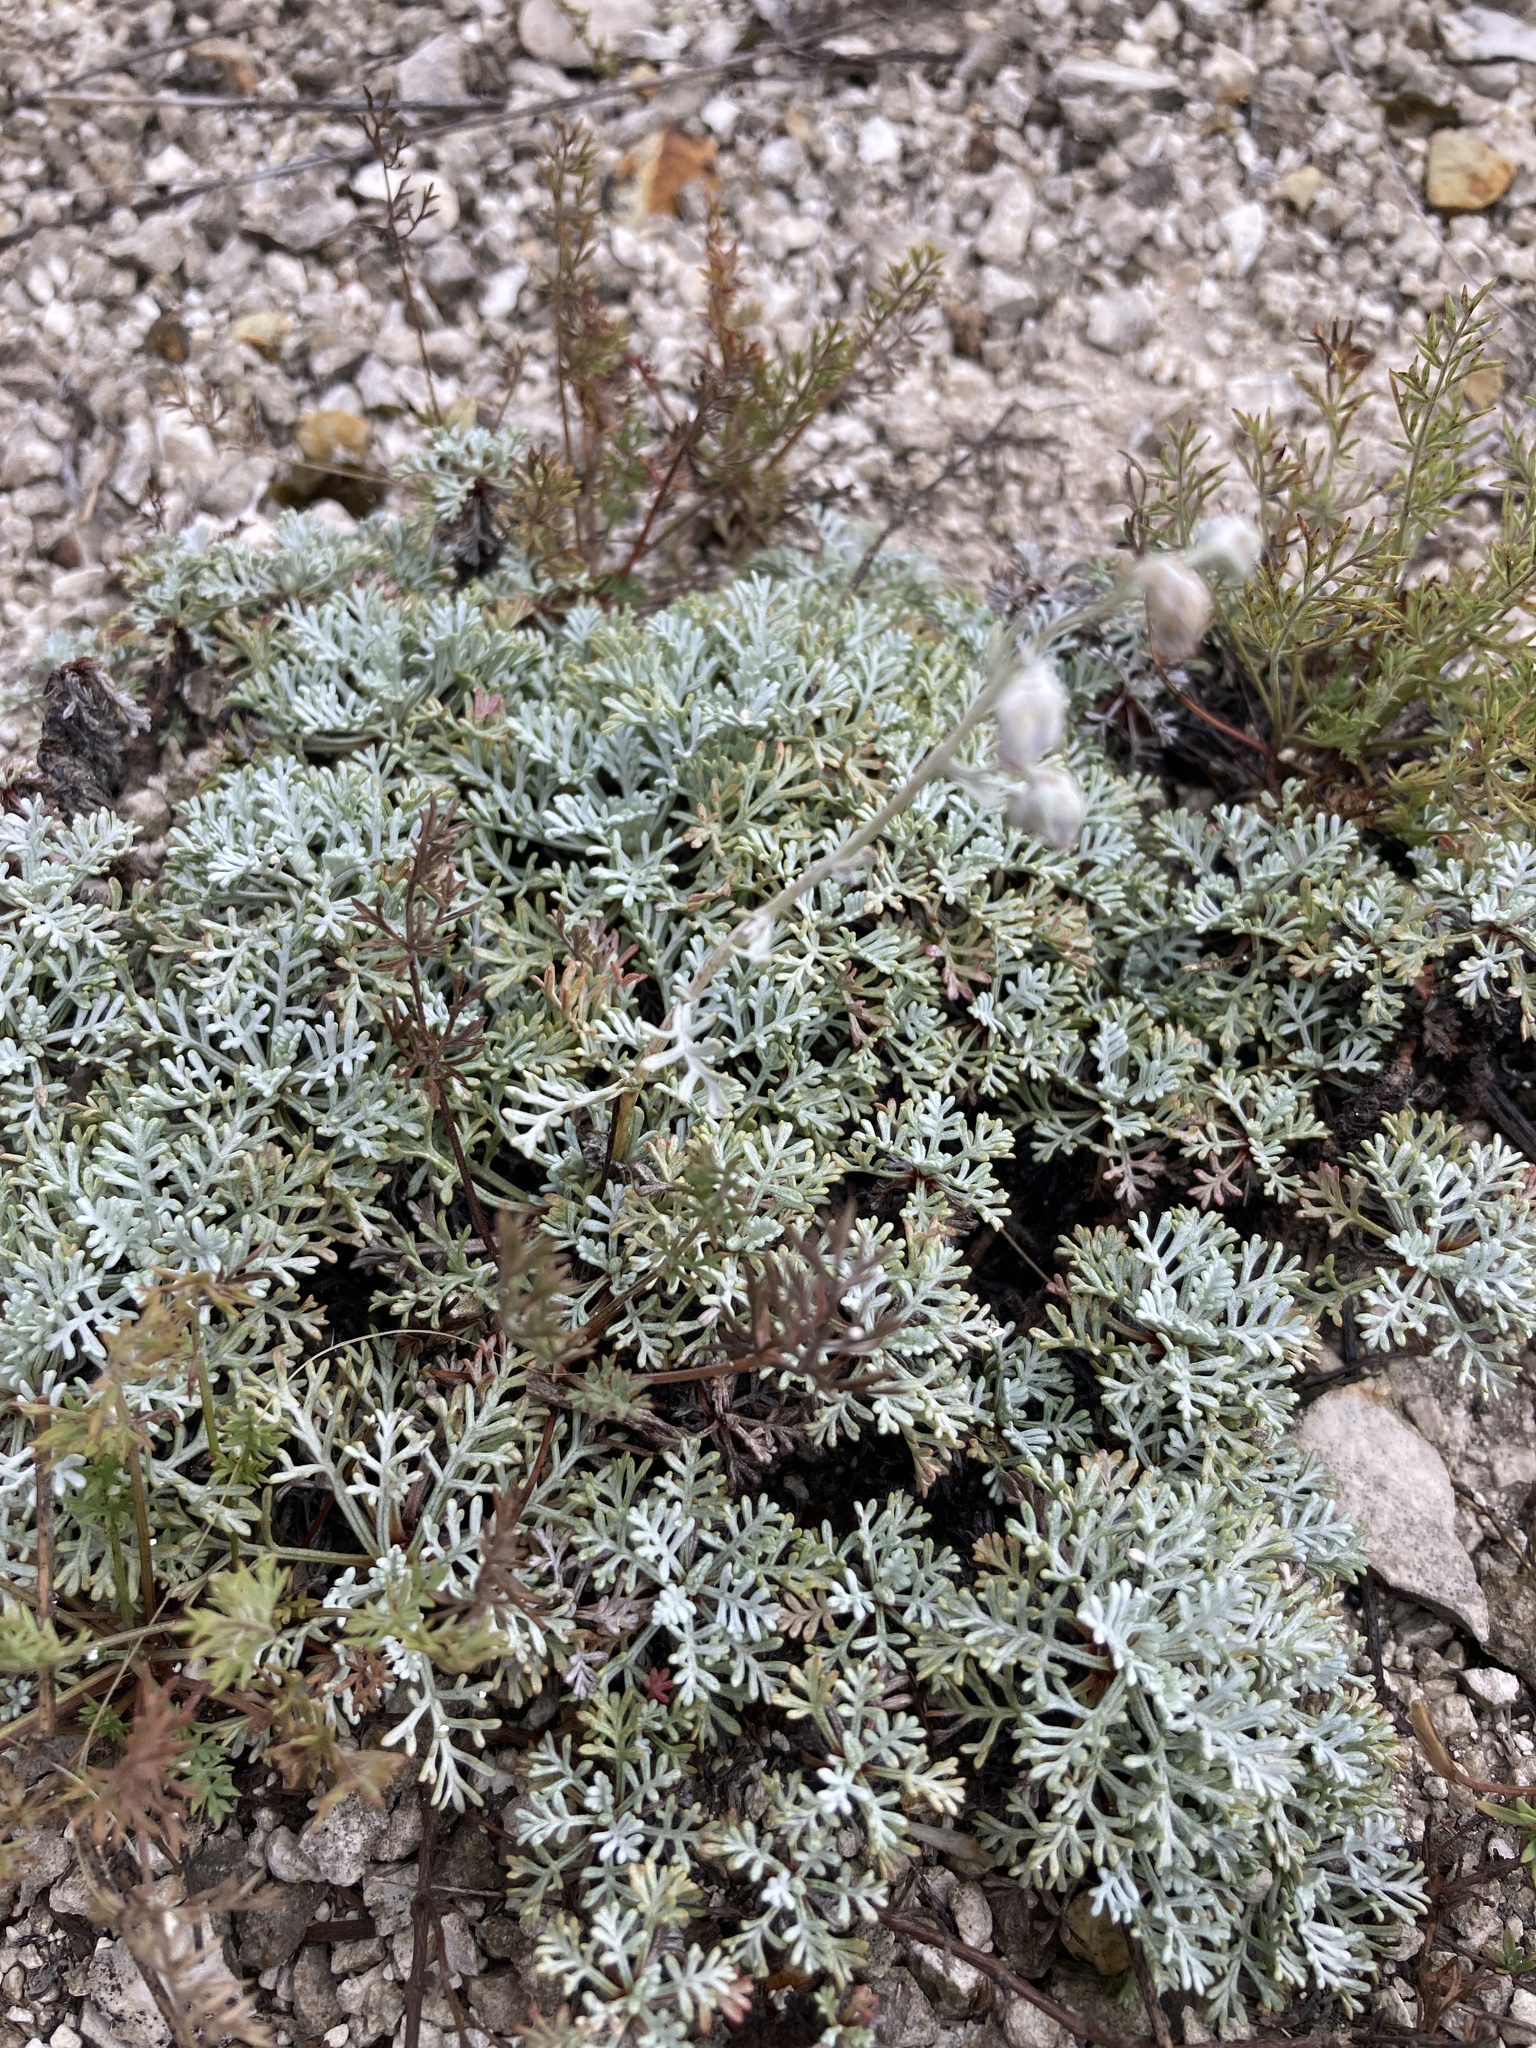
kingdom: Plantae
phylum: Tracheophyta
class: Magnoliopsida
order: Asterales
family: Asteraceae
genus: Artemisia
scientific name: Artemisia hololeuca
